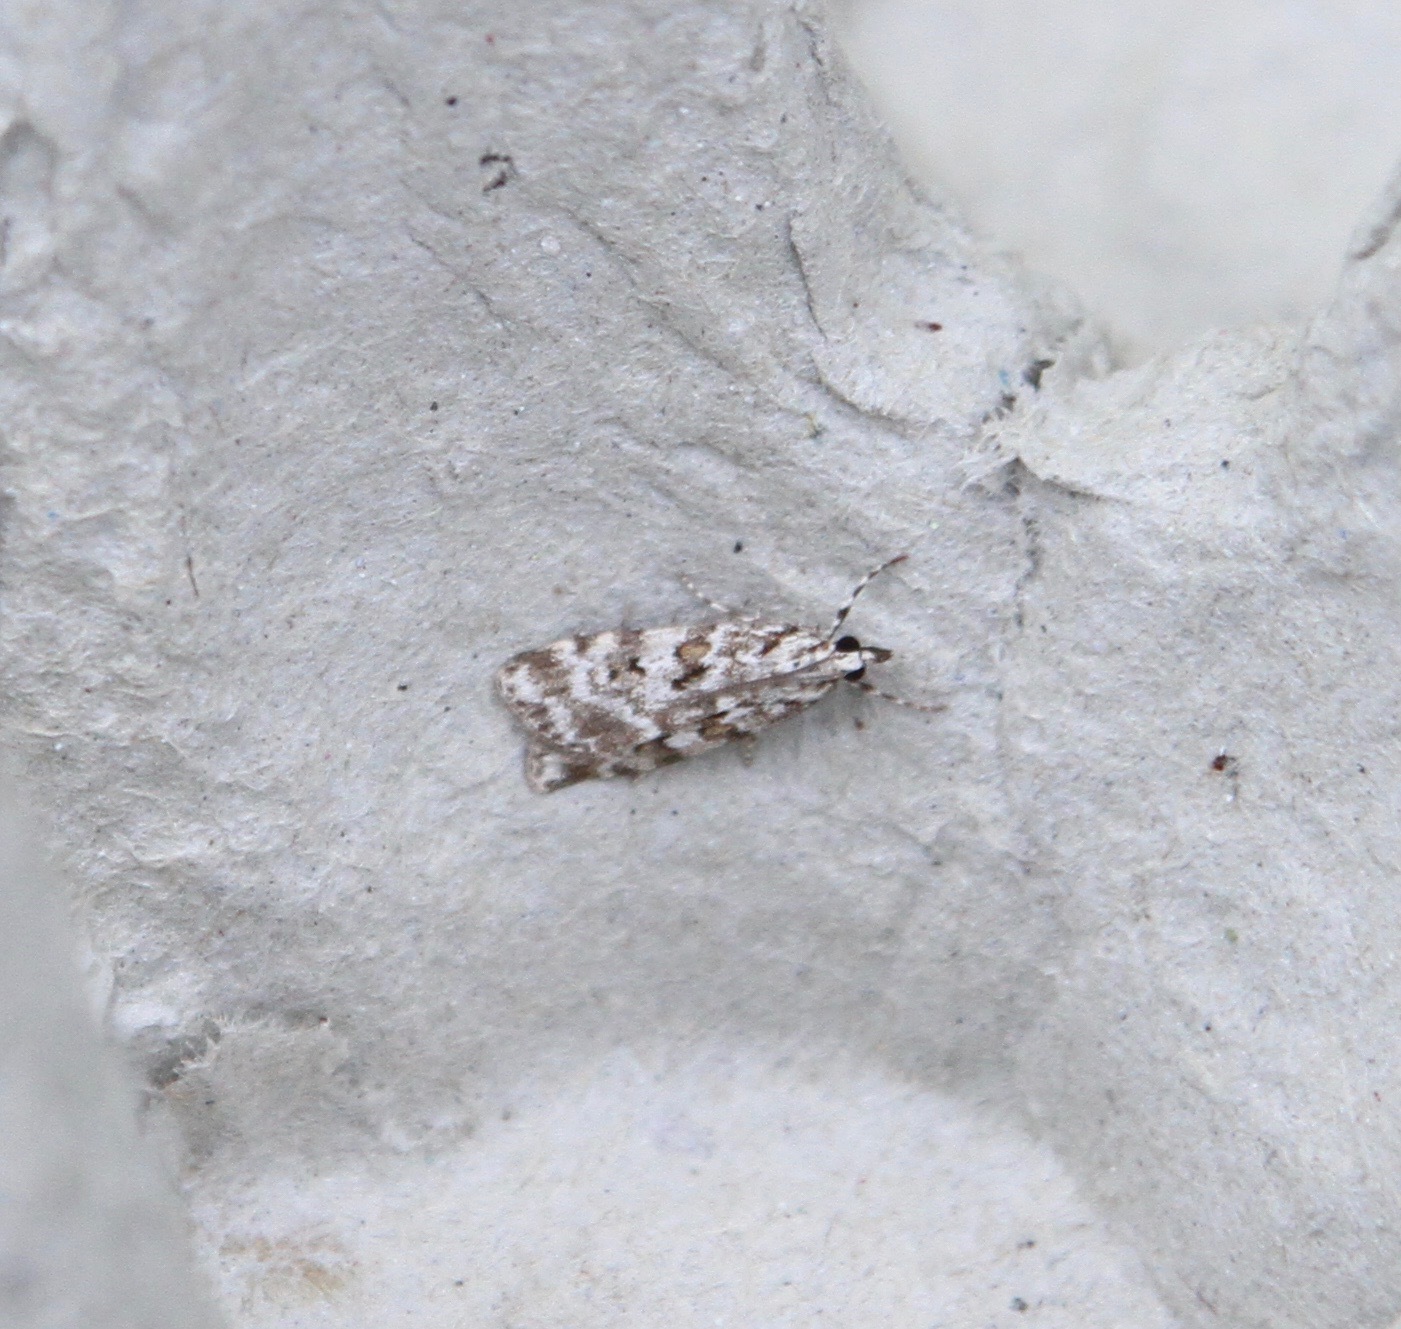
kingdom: Animalia
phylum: Arthropoda
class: Insecta
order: Lepidoptera
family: Crambidae
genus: Scoparia
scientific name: Scoparia pyralella
